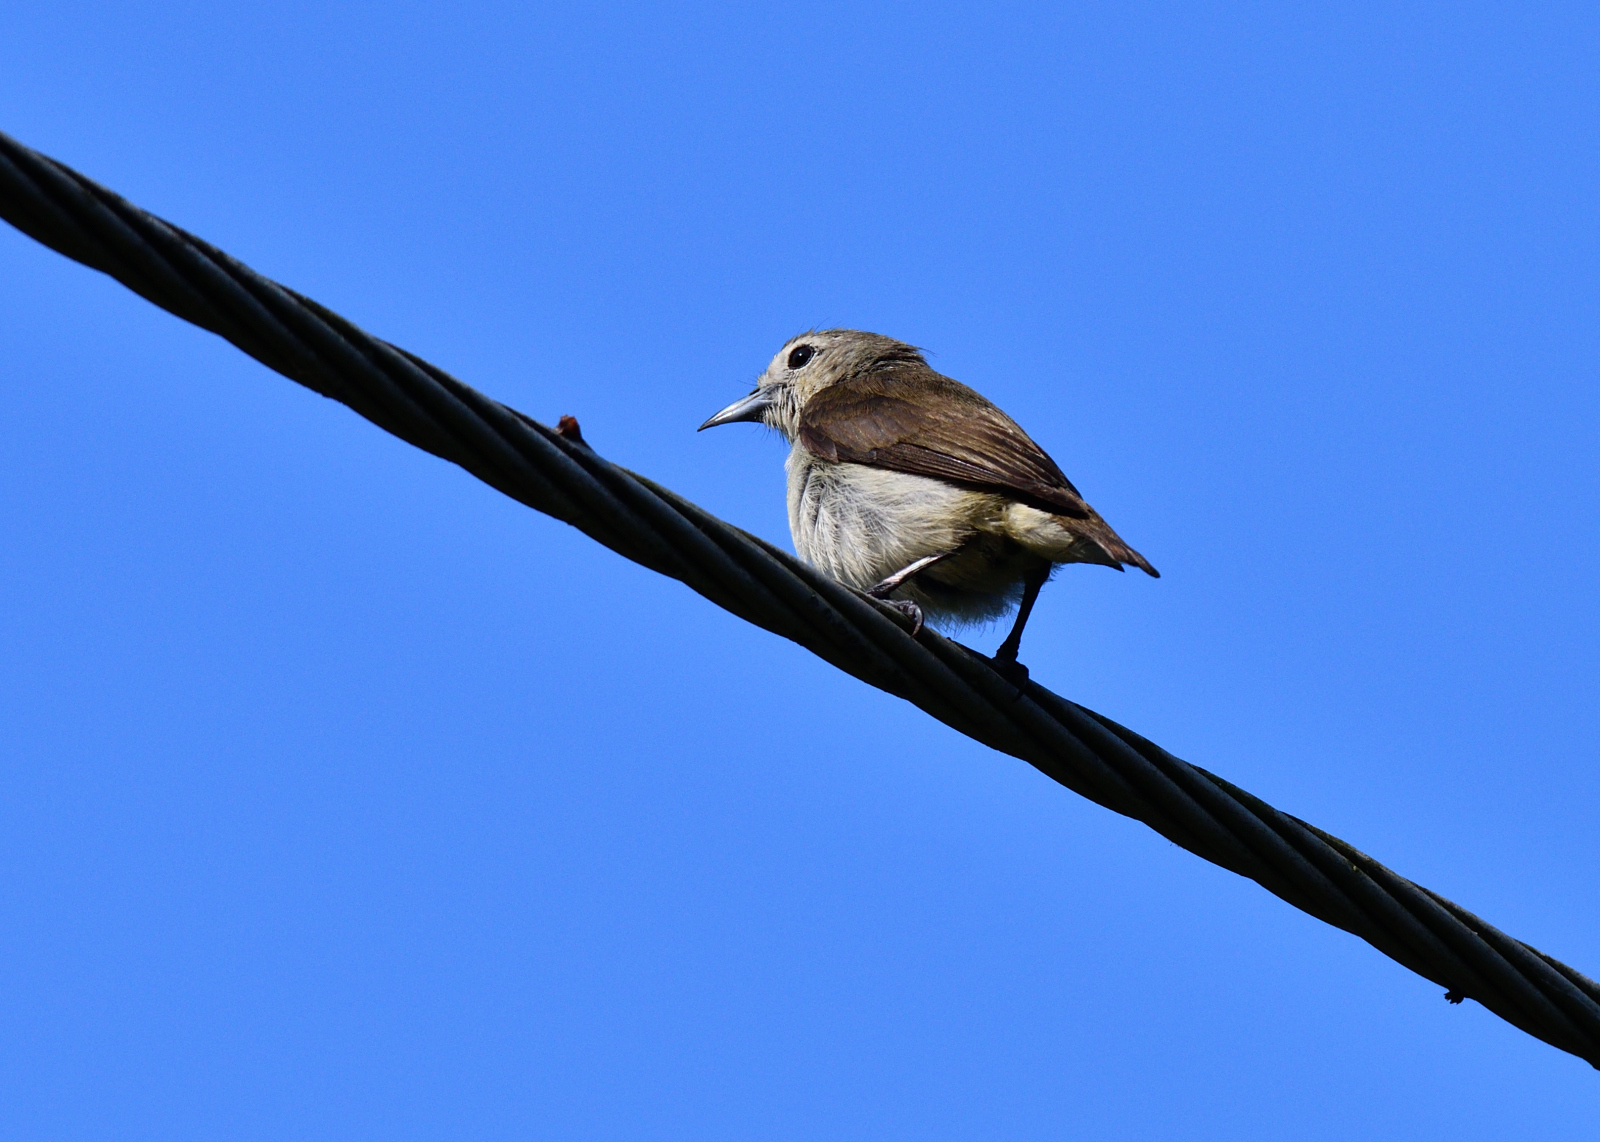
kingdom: Animalia
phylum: Chordata
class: Aves
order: Passeriformes
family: Dicaeidae
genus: Dicaeum
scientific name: Dicaeum concolor
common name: Nilgiri flowerpecker
